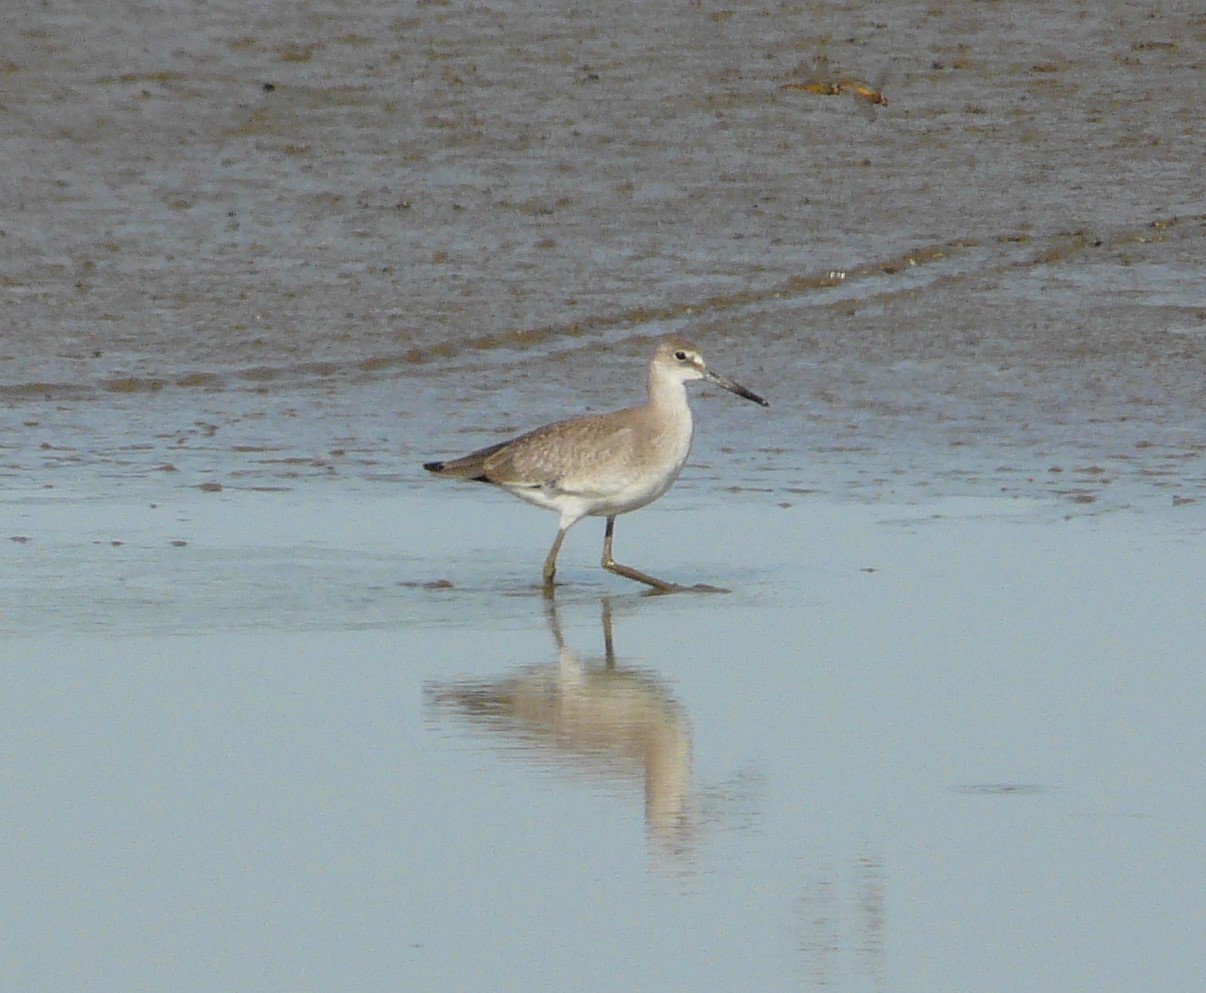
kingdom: Animalia
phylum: Chordata
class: Aves
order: Charadriiformes
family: Scolopacidae
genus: Tringa
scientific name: Tringa semipalmata
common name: Willet
